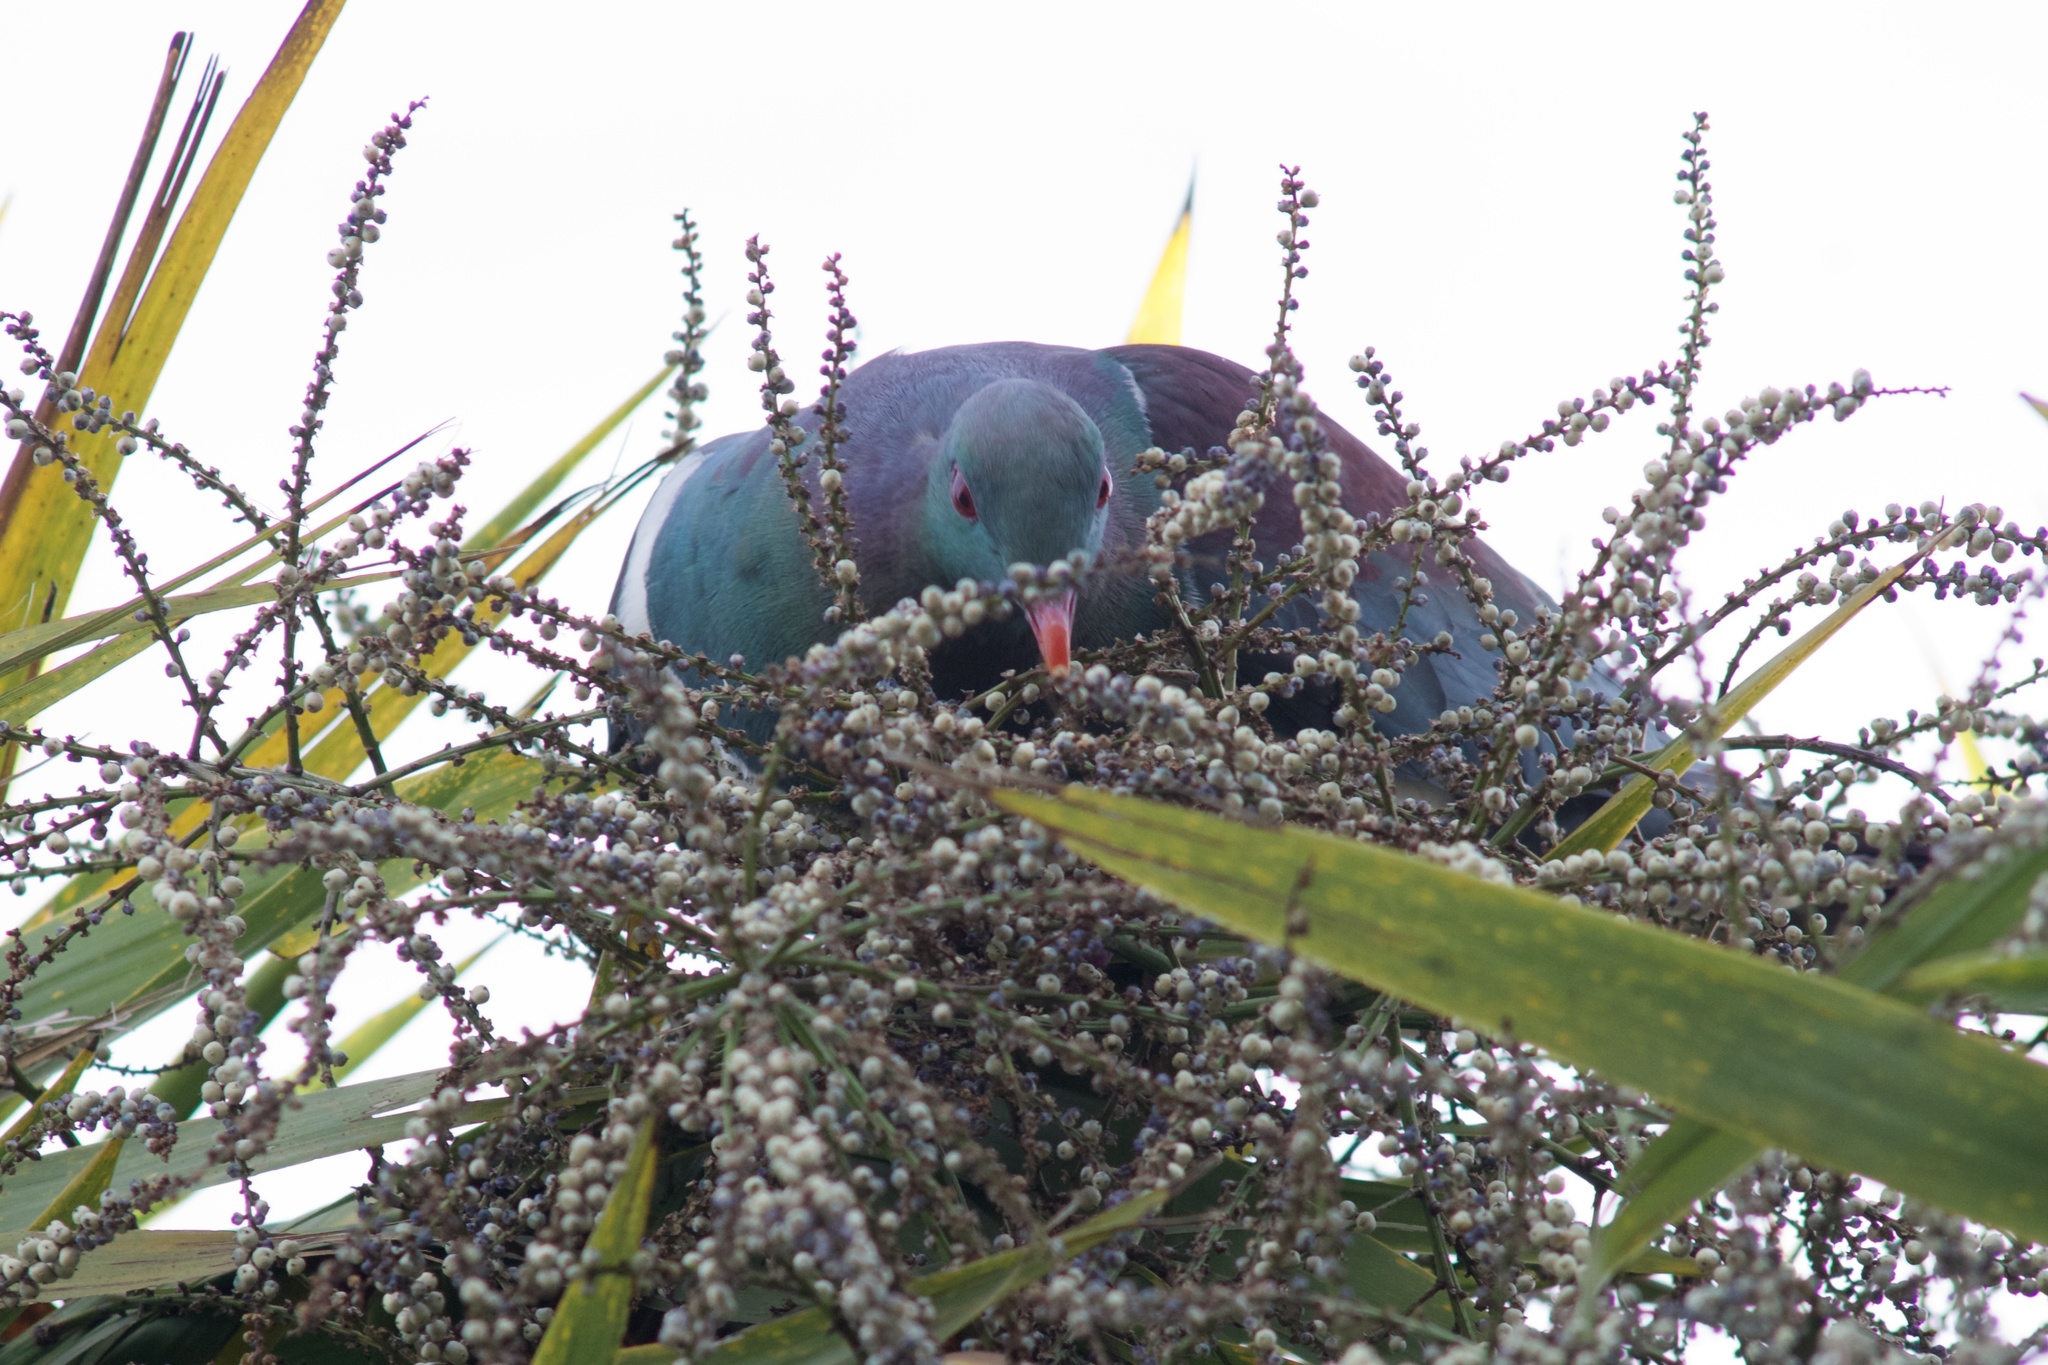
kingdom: Animalia
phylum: Chordata
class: Aves
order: Columbiformes
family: Columbidae
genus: Hemiphaga
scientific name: Hemiphaga novaeseelandiae
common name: New zealand pigeon
